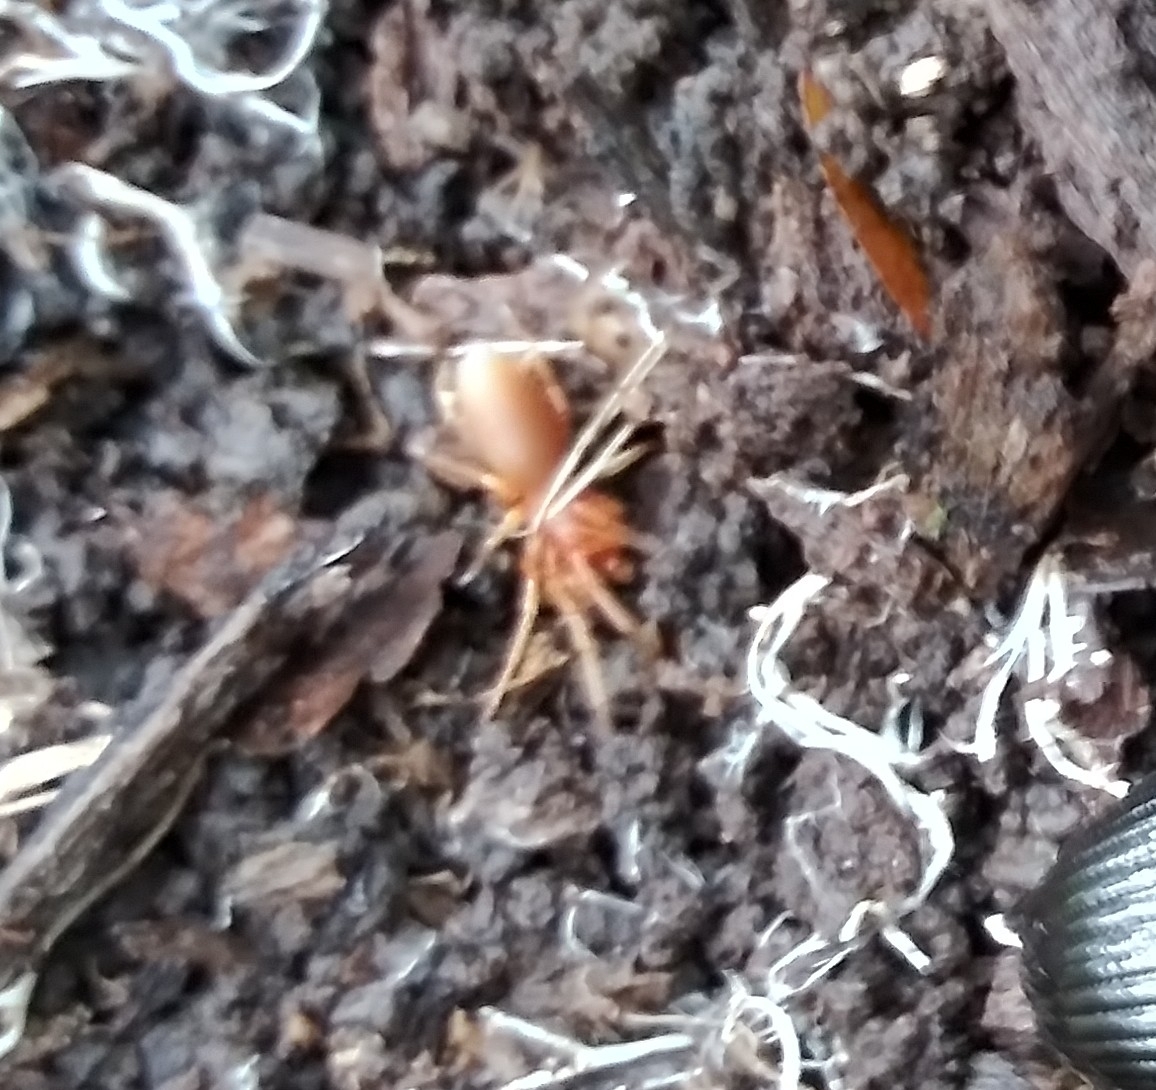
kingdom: Animalia
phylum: Arthropoda
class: Arachnida
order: Araneae
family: Dysderidae
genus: Dysdera
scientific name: Dysdera crocata
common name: Woodlouse spider
